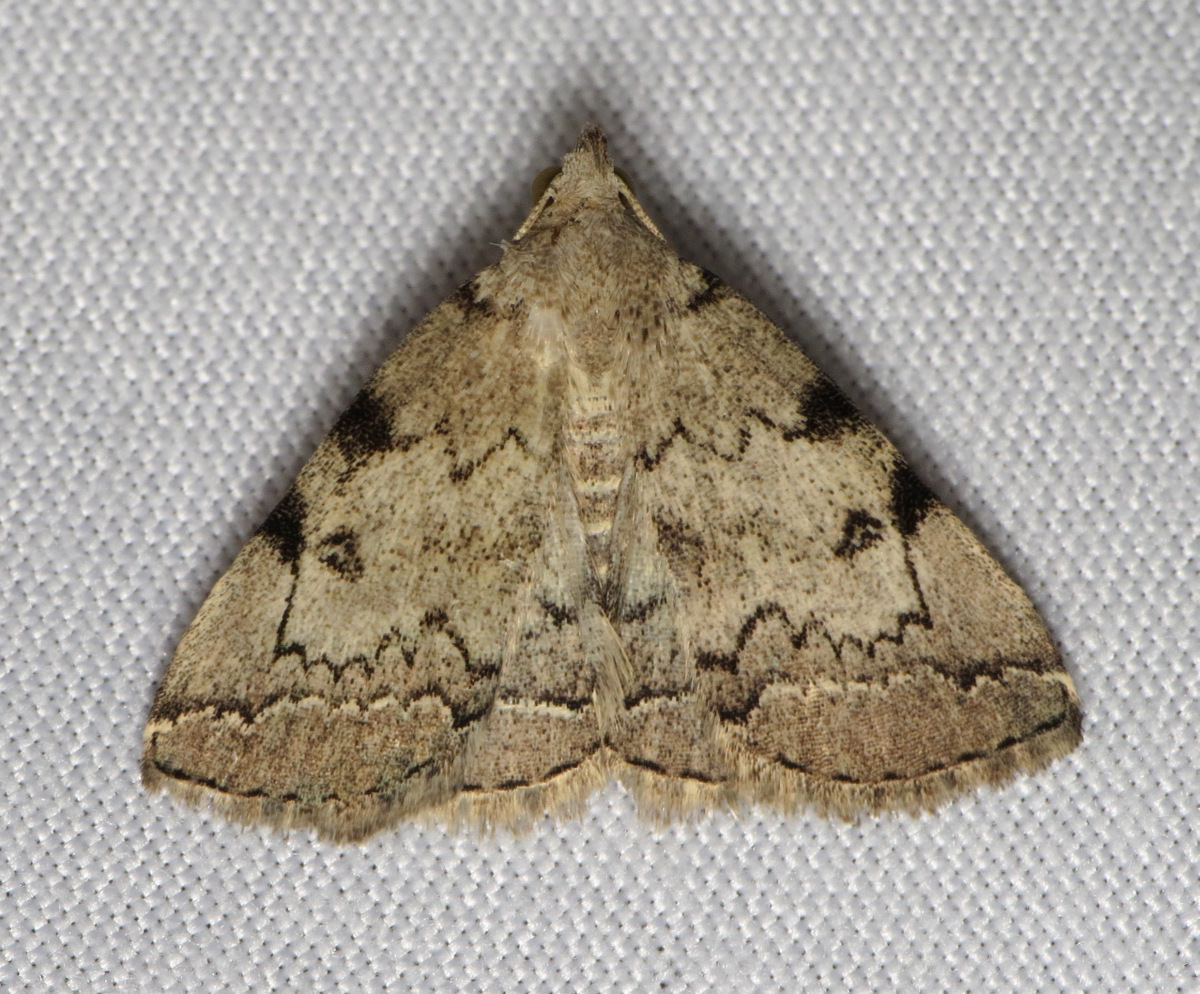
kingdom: Animalia
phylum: Arthropoda
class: Insecta
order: Lepidoptera
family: Erebidae
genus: Zanclognatha
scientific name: Zanclognatha theralis
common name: Flagged fan-foot
